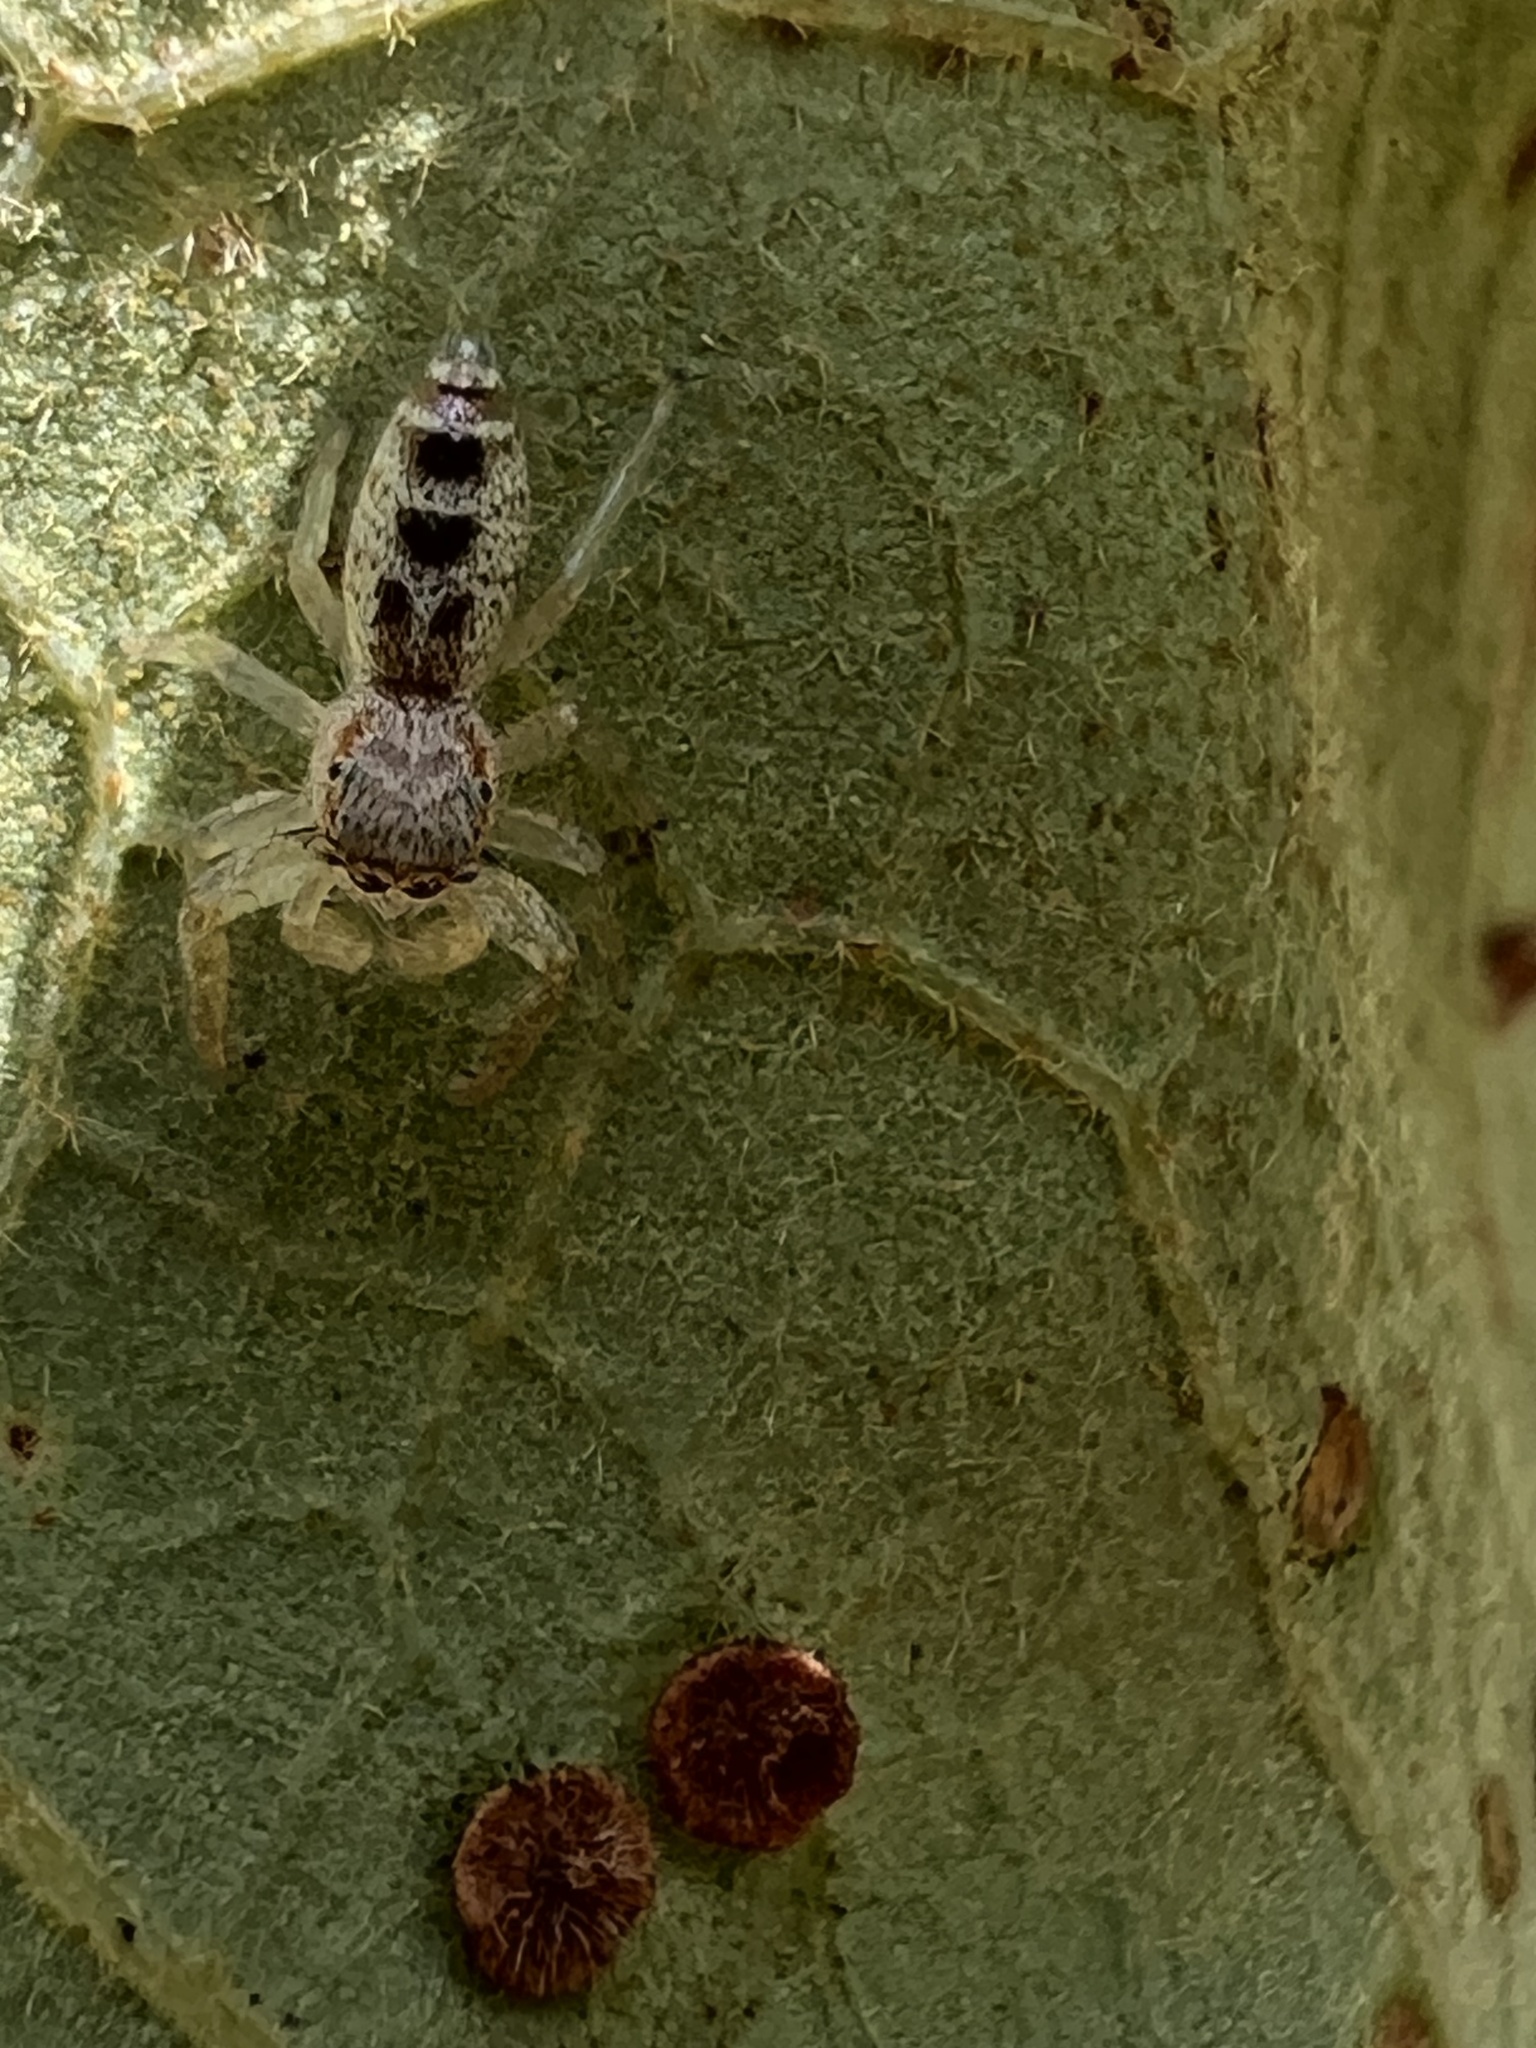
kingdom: Animalia
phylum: Arthropoda
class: Arachnida
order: Araneae
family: Salticidae
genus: Hentzia
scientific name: Hentzia mitrata
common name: White-jawed jumping spider
